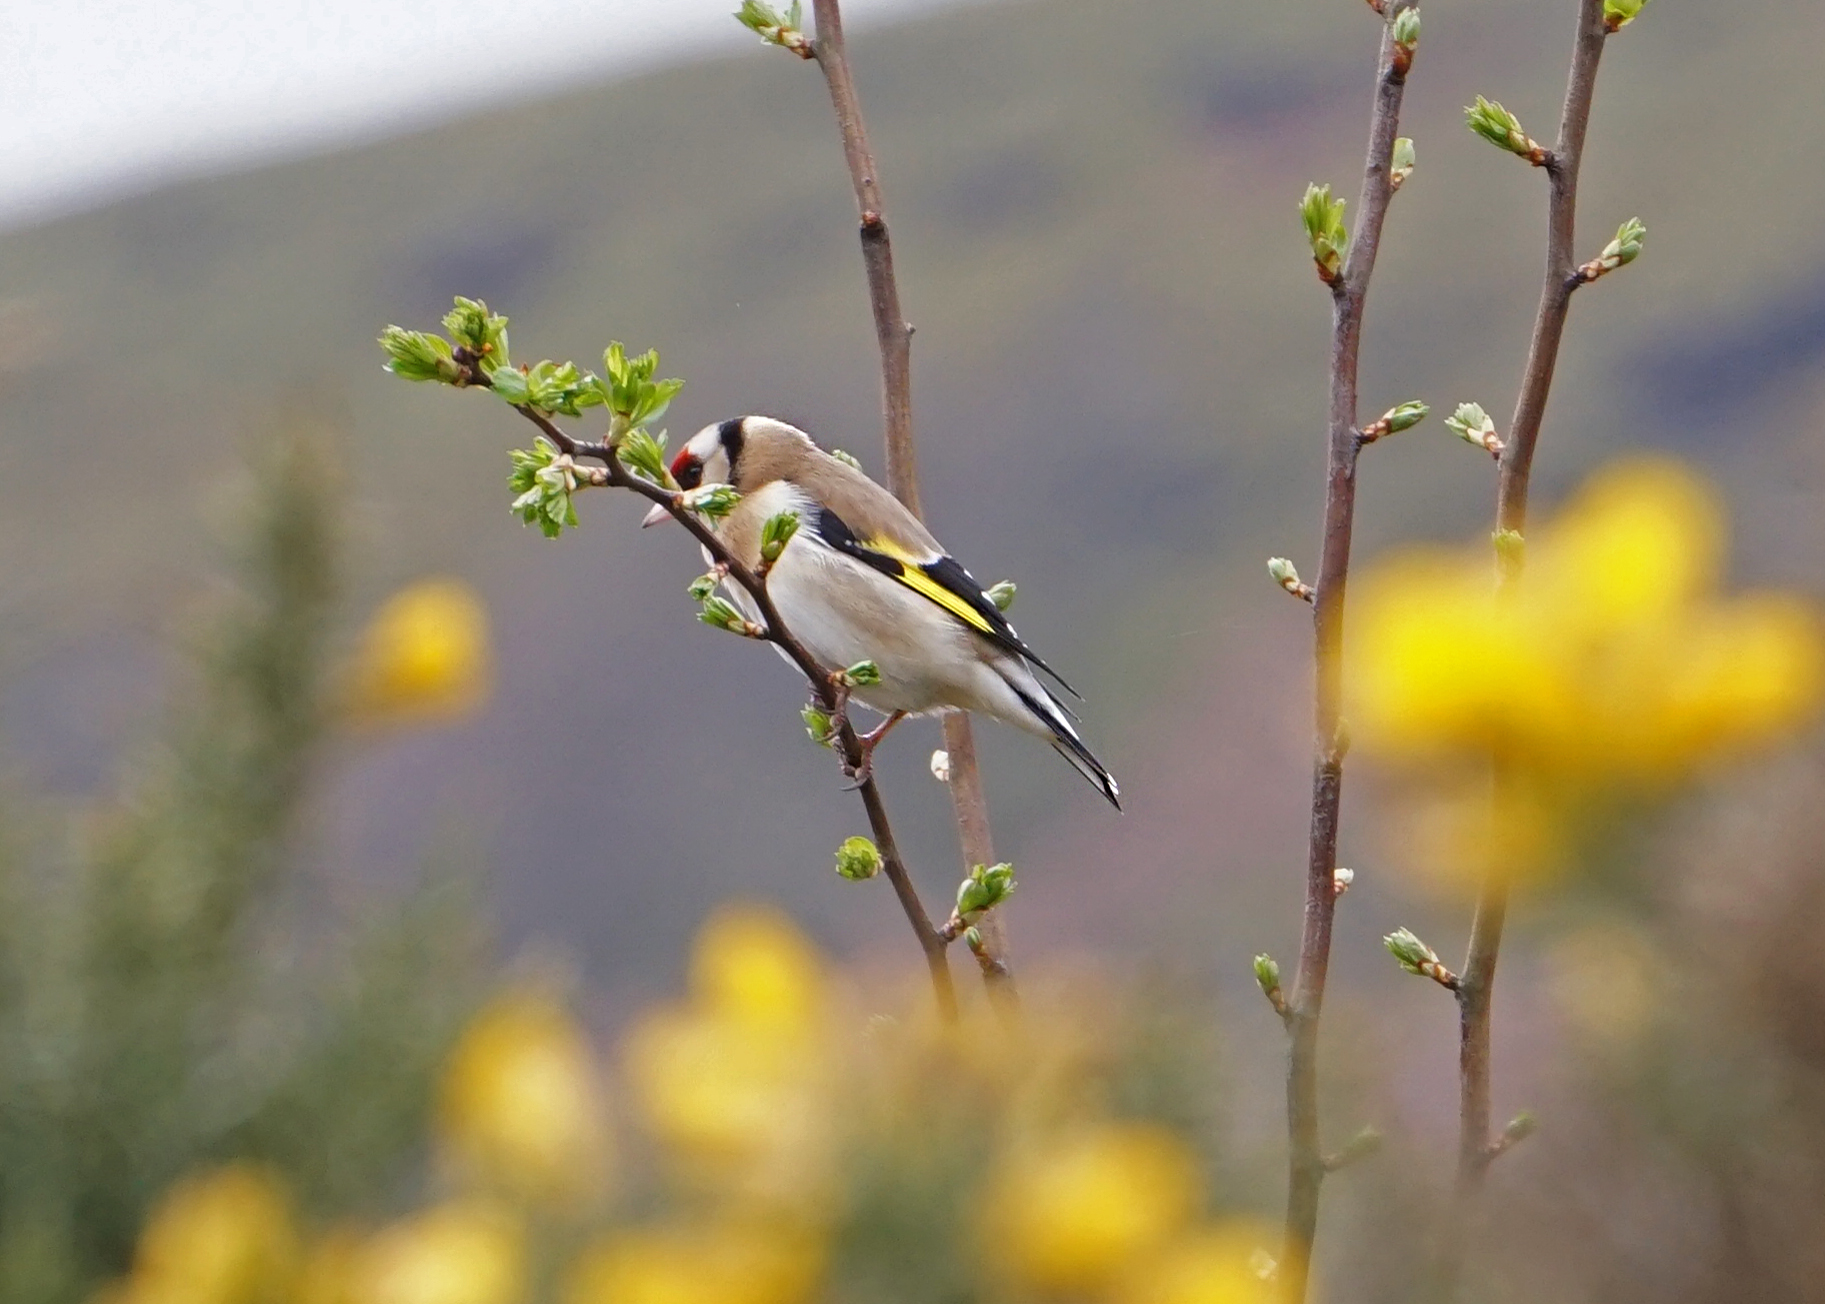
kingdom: Animalia
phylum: Chordata
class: Aves
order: Passeriformes
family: Fringillidae
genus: Carduelis
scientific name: Carduelis carduelis
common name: European goldfinch
